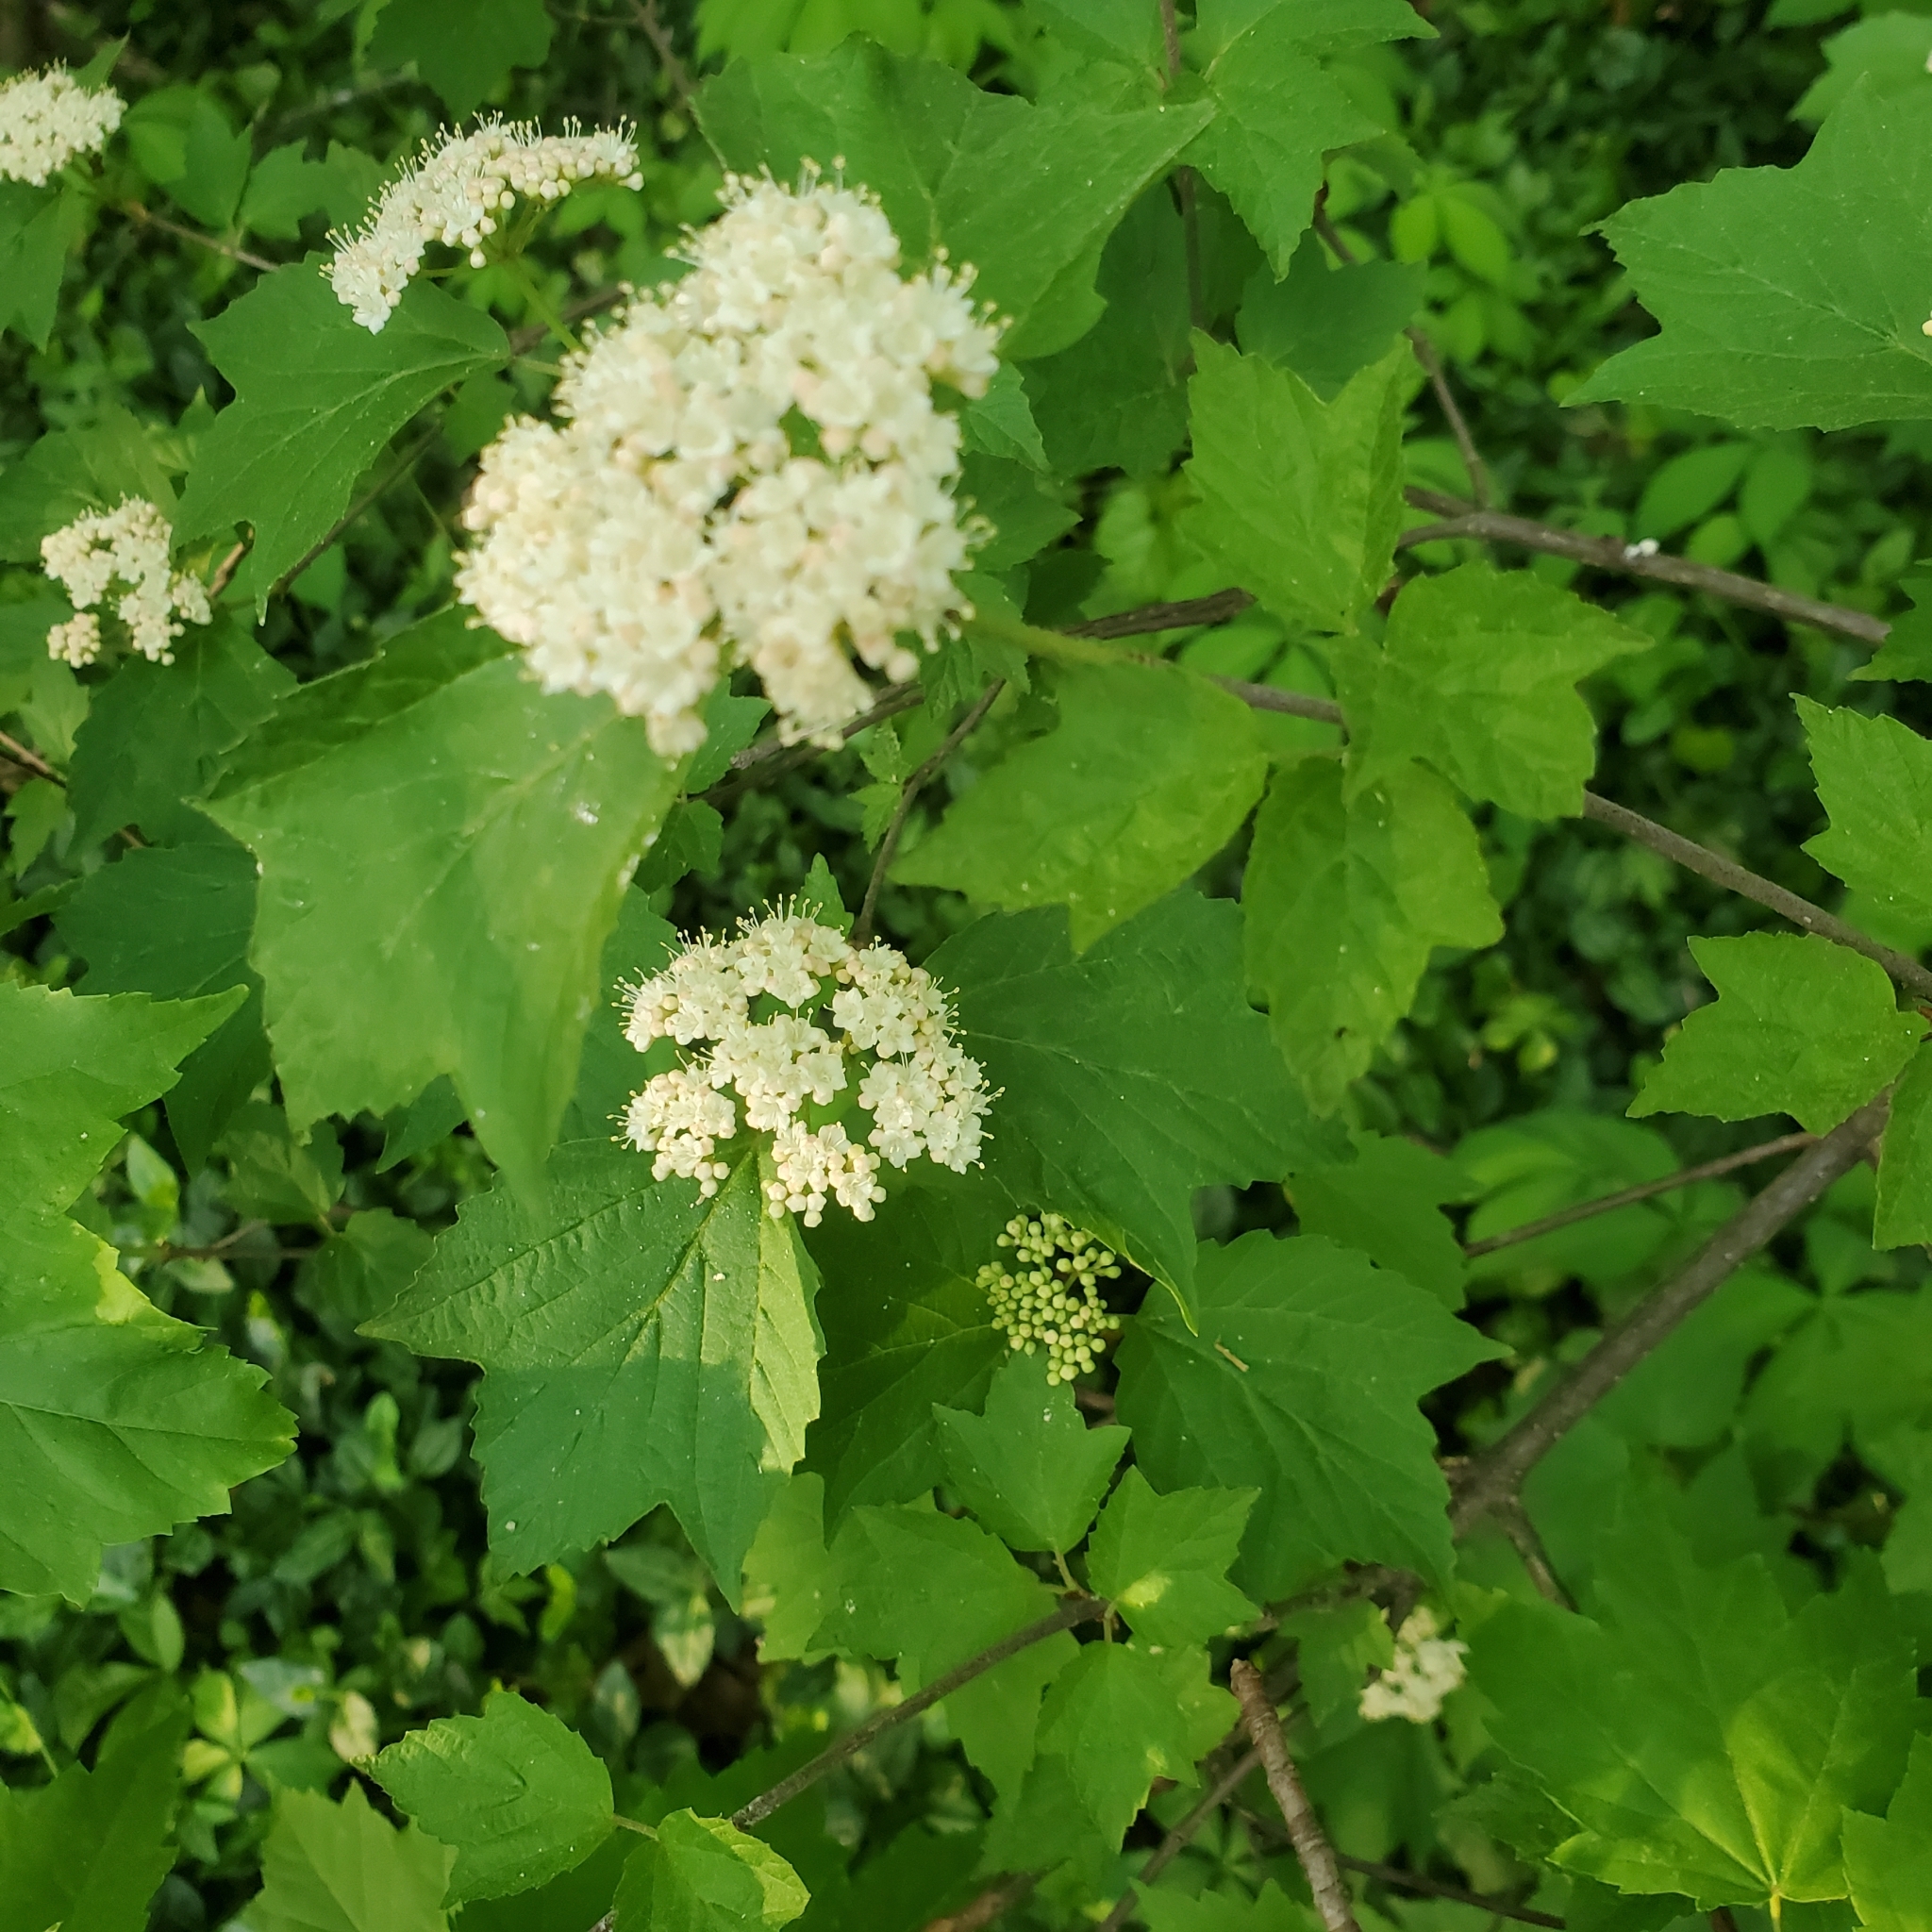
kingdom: Plantae
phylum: Tracheophyta
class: Magnoliopsida
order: Dipsacales
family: Viburnaceae
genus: Viburnum
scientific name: Viburnum acerifolium
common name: Dockmackie
